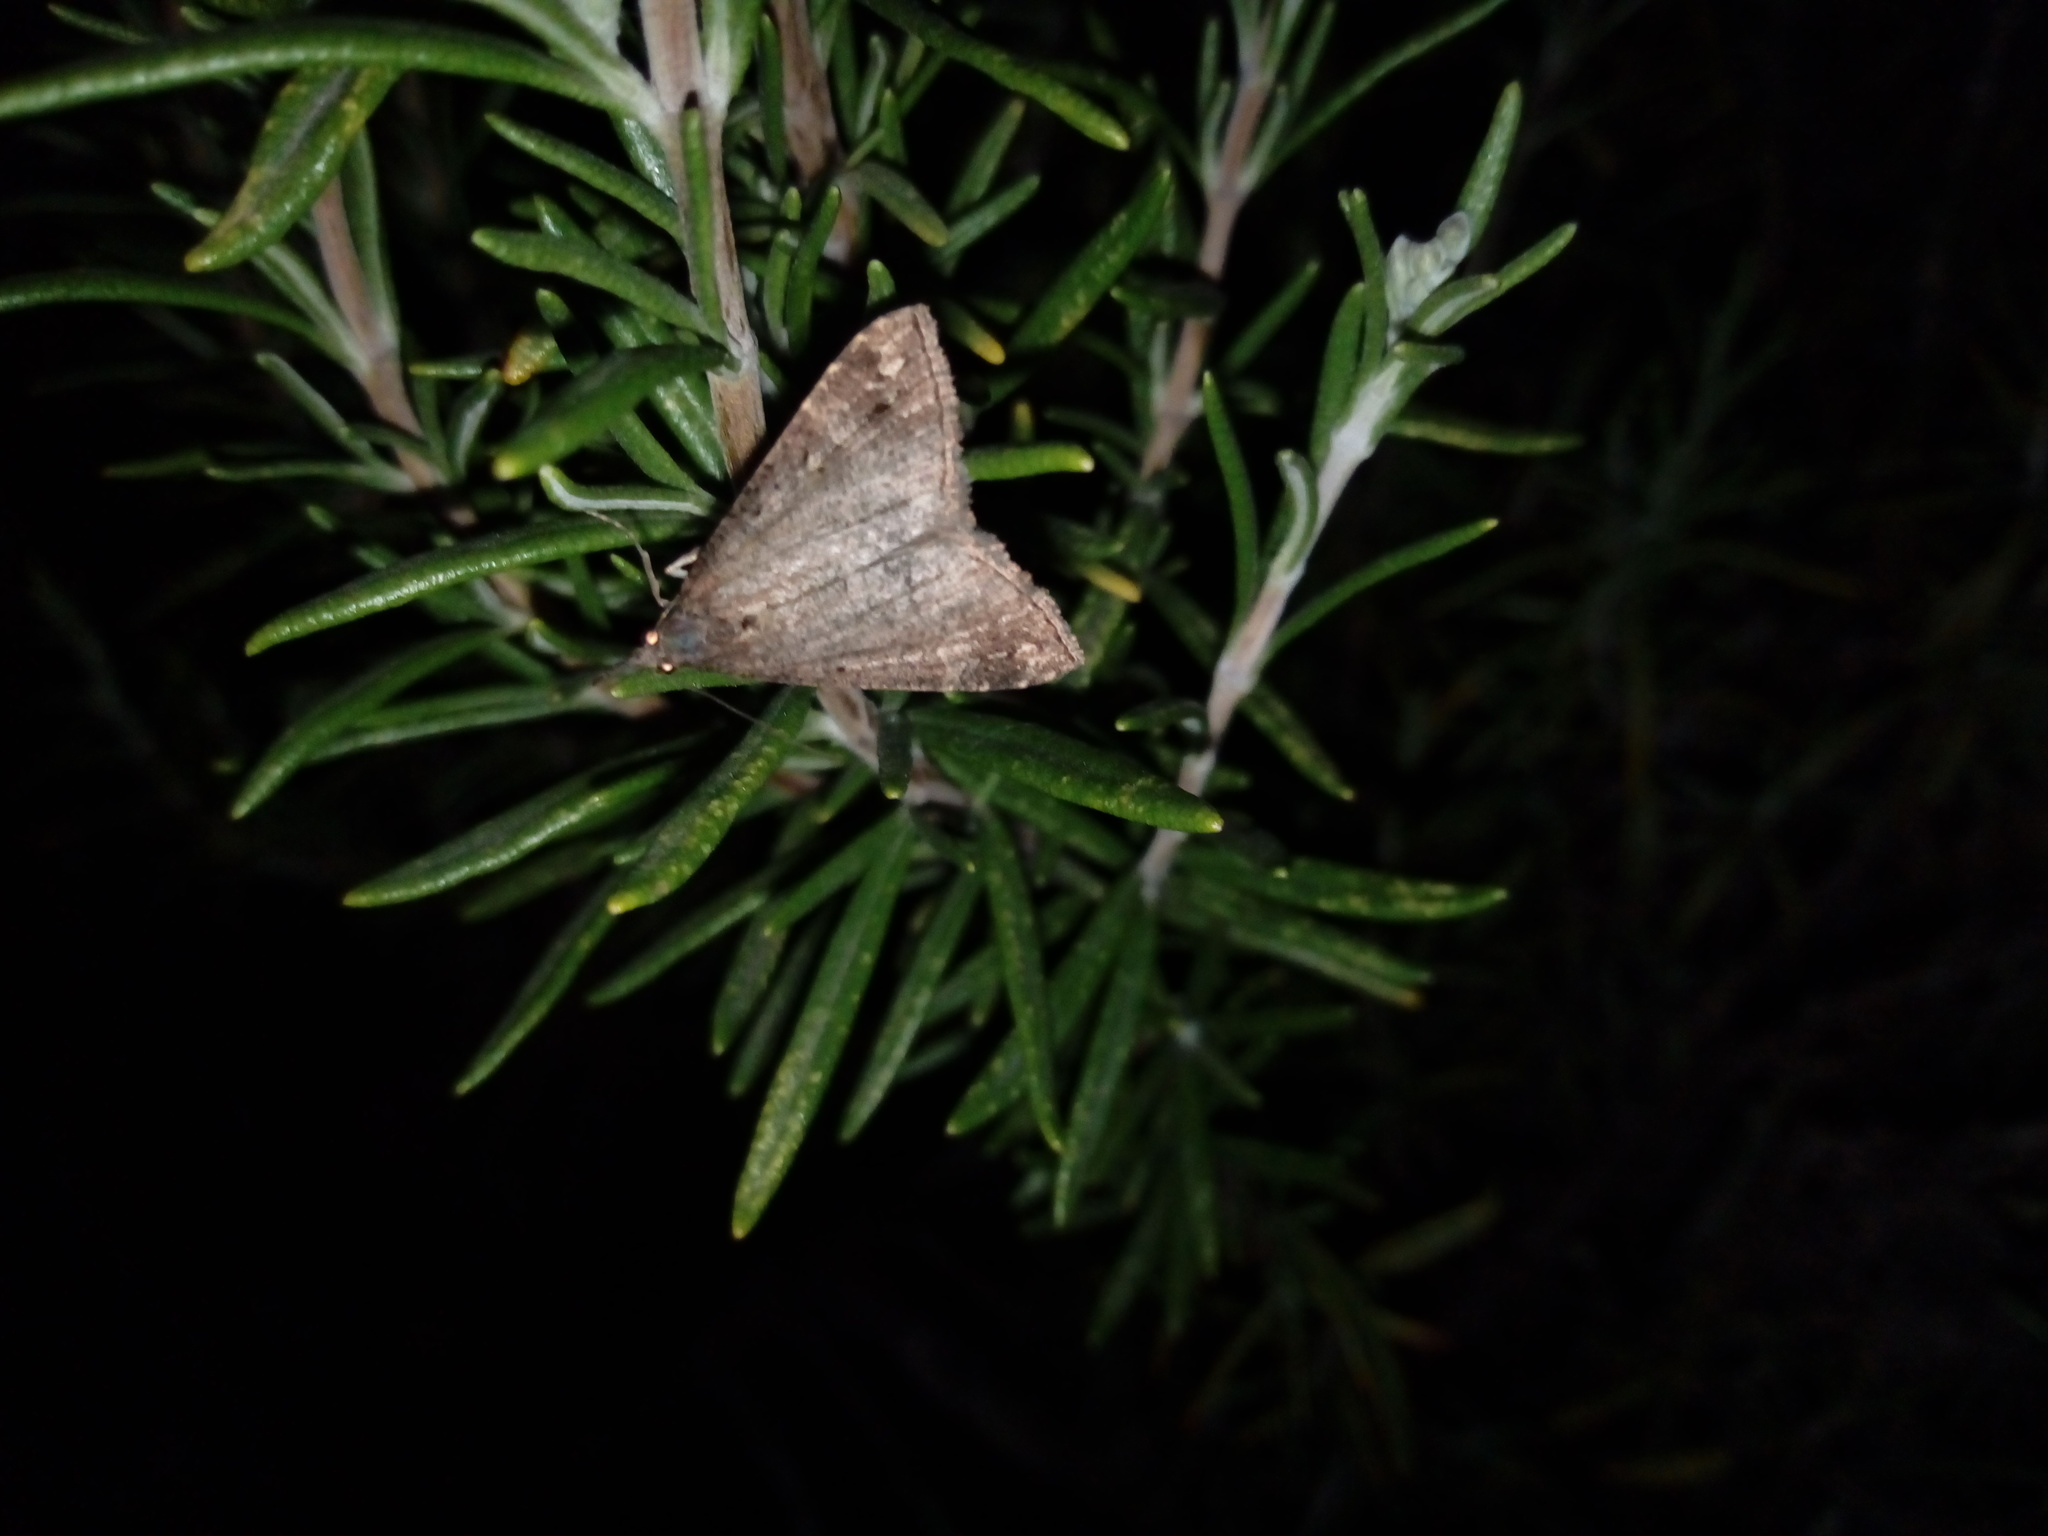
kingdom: Animalia
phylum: Arthropoda
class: Insecta
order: Lepidoptera
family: Erebidae
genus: Hypena
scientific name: Hypena obsitalis
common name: Bloxworth snout
